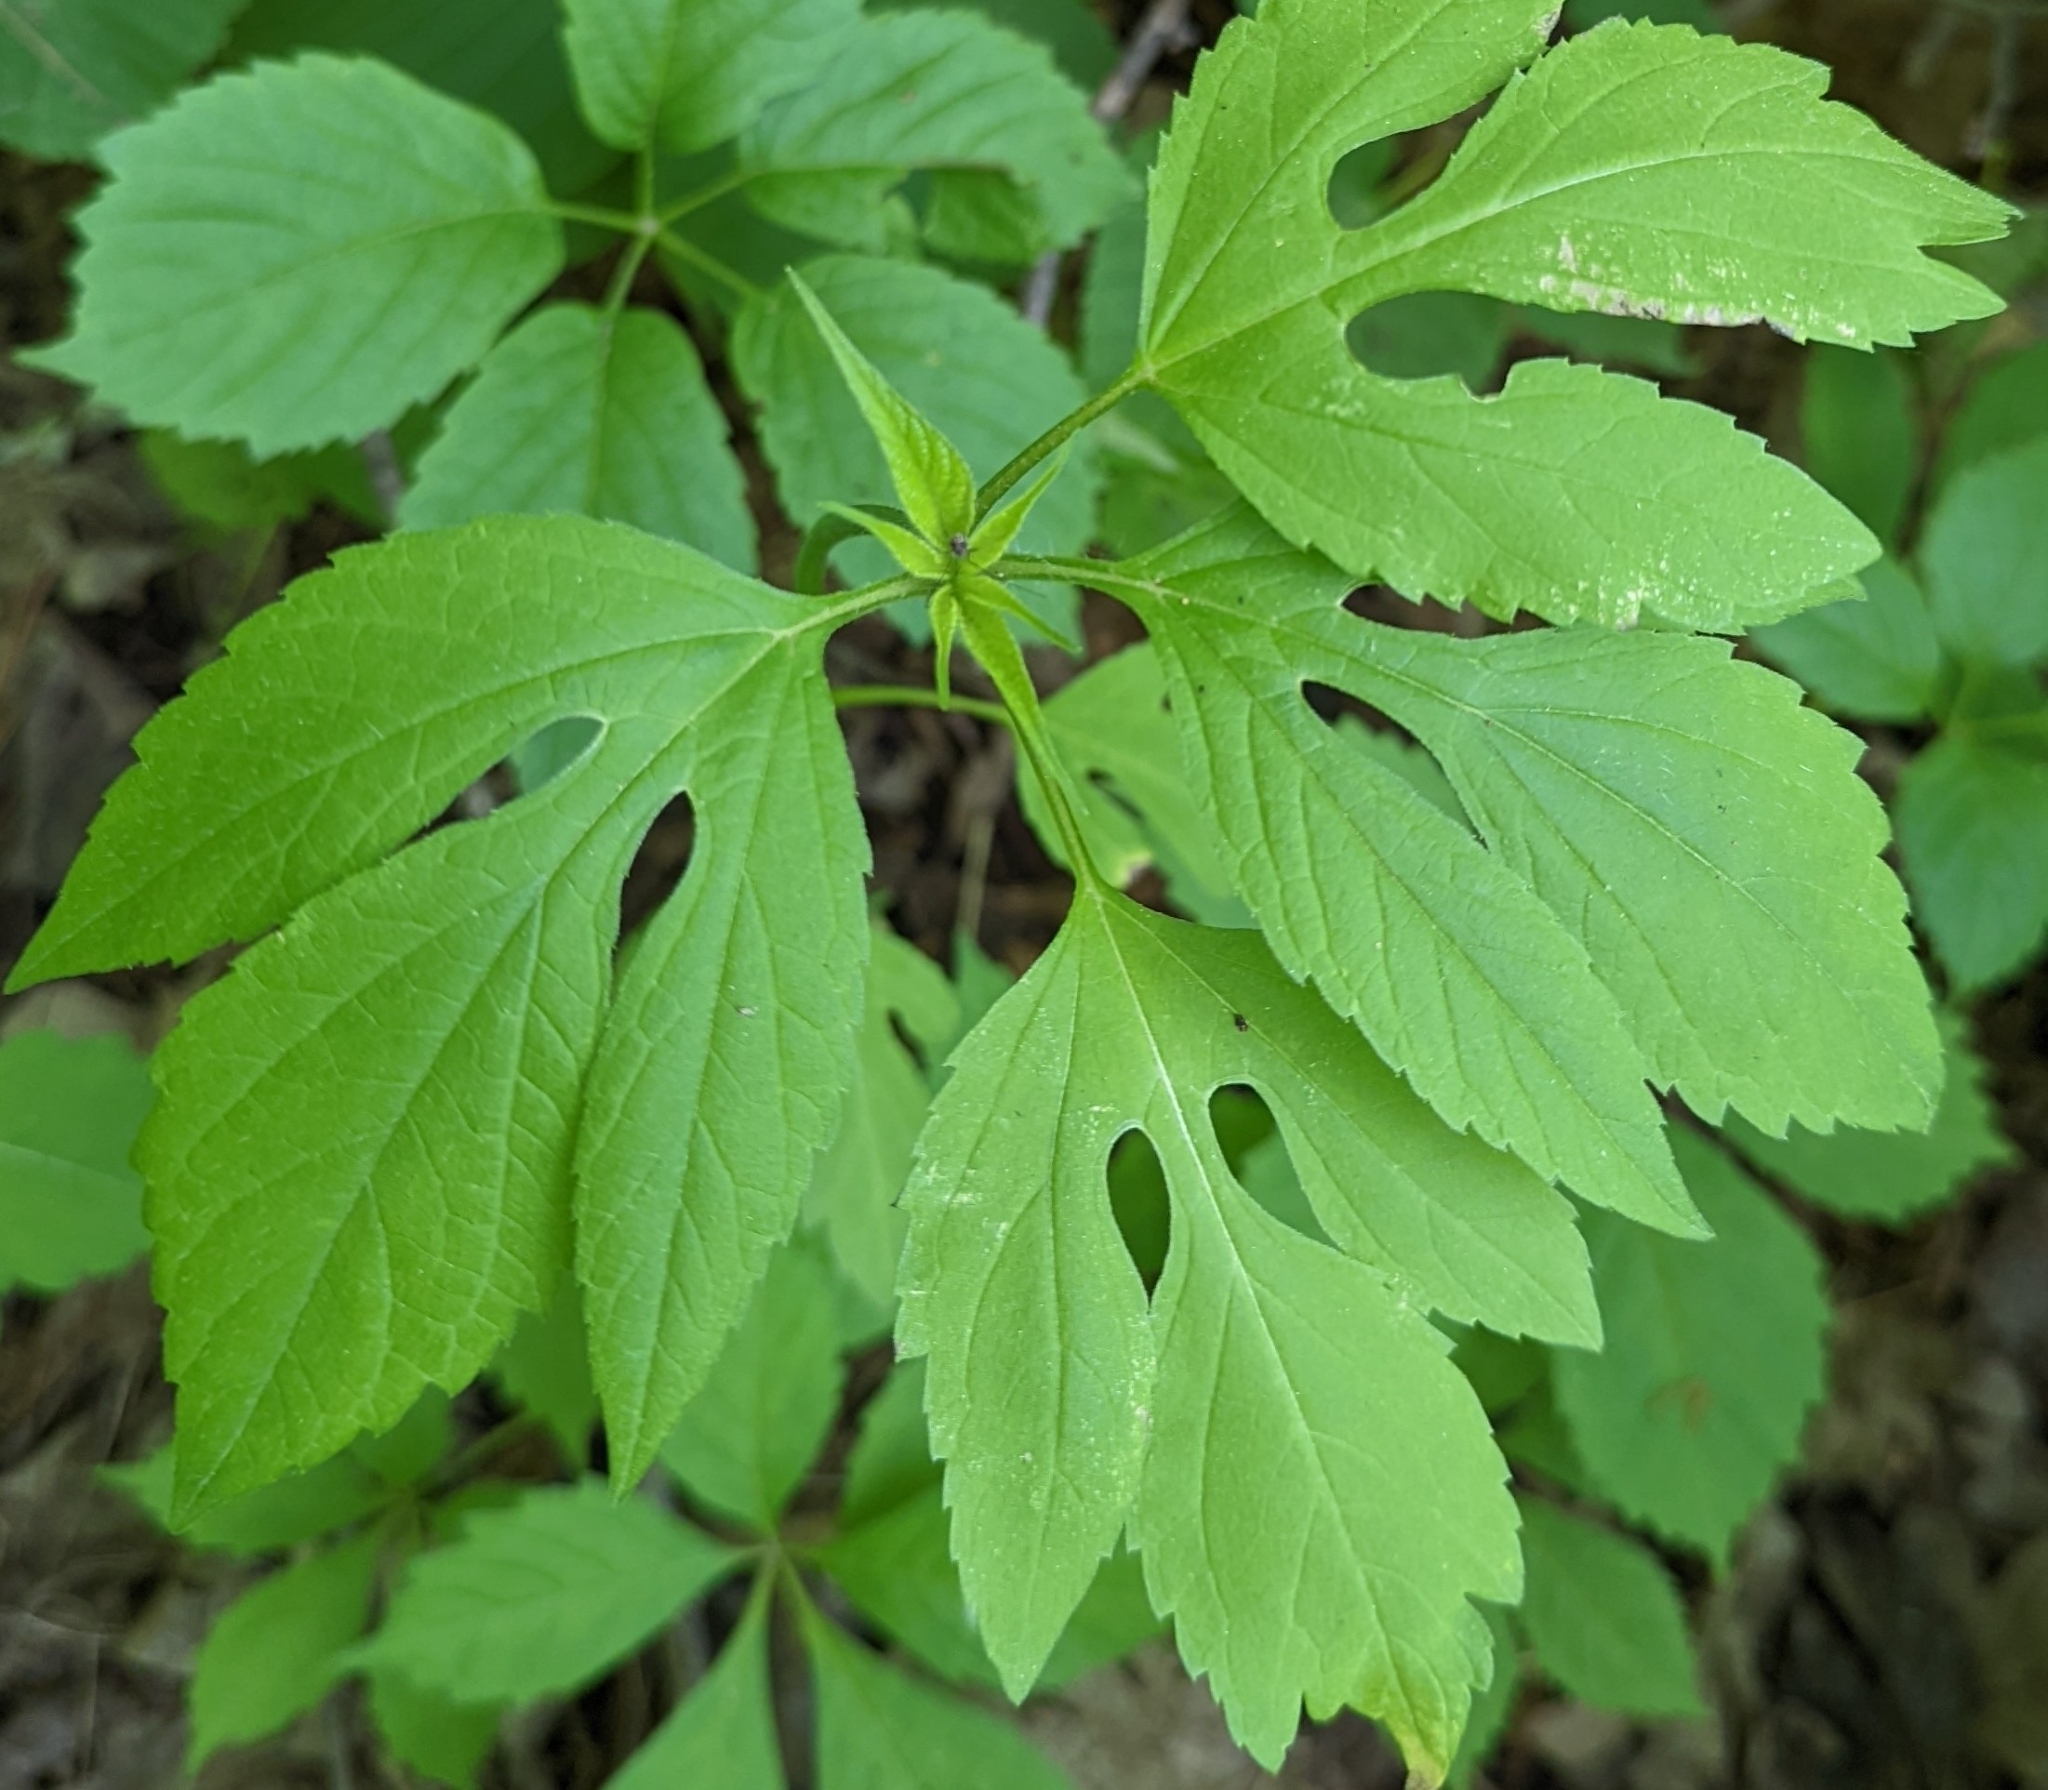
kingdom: Plantae
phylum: Tracheophyta
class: Magnoliopsida
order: Asterales
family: Asteraceae
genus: Ambrosia
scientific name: Ambrosia trifida
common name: Giant ragweed
